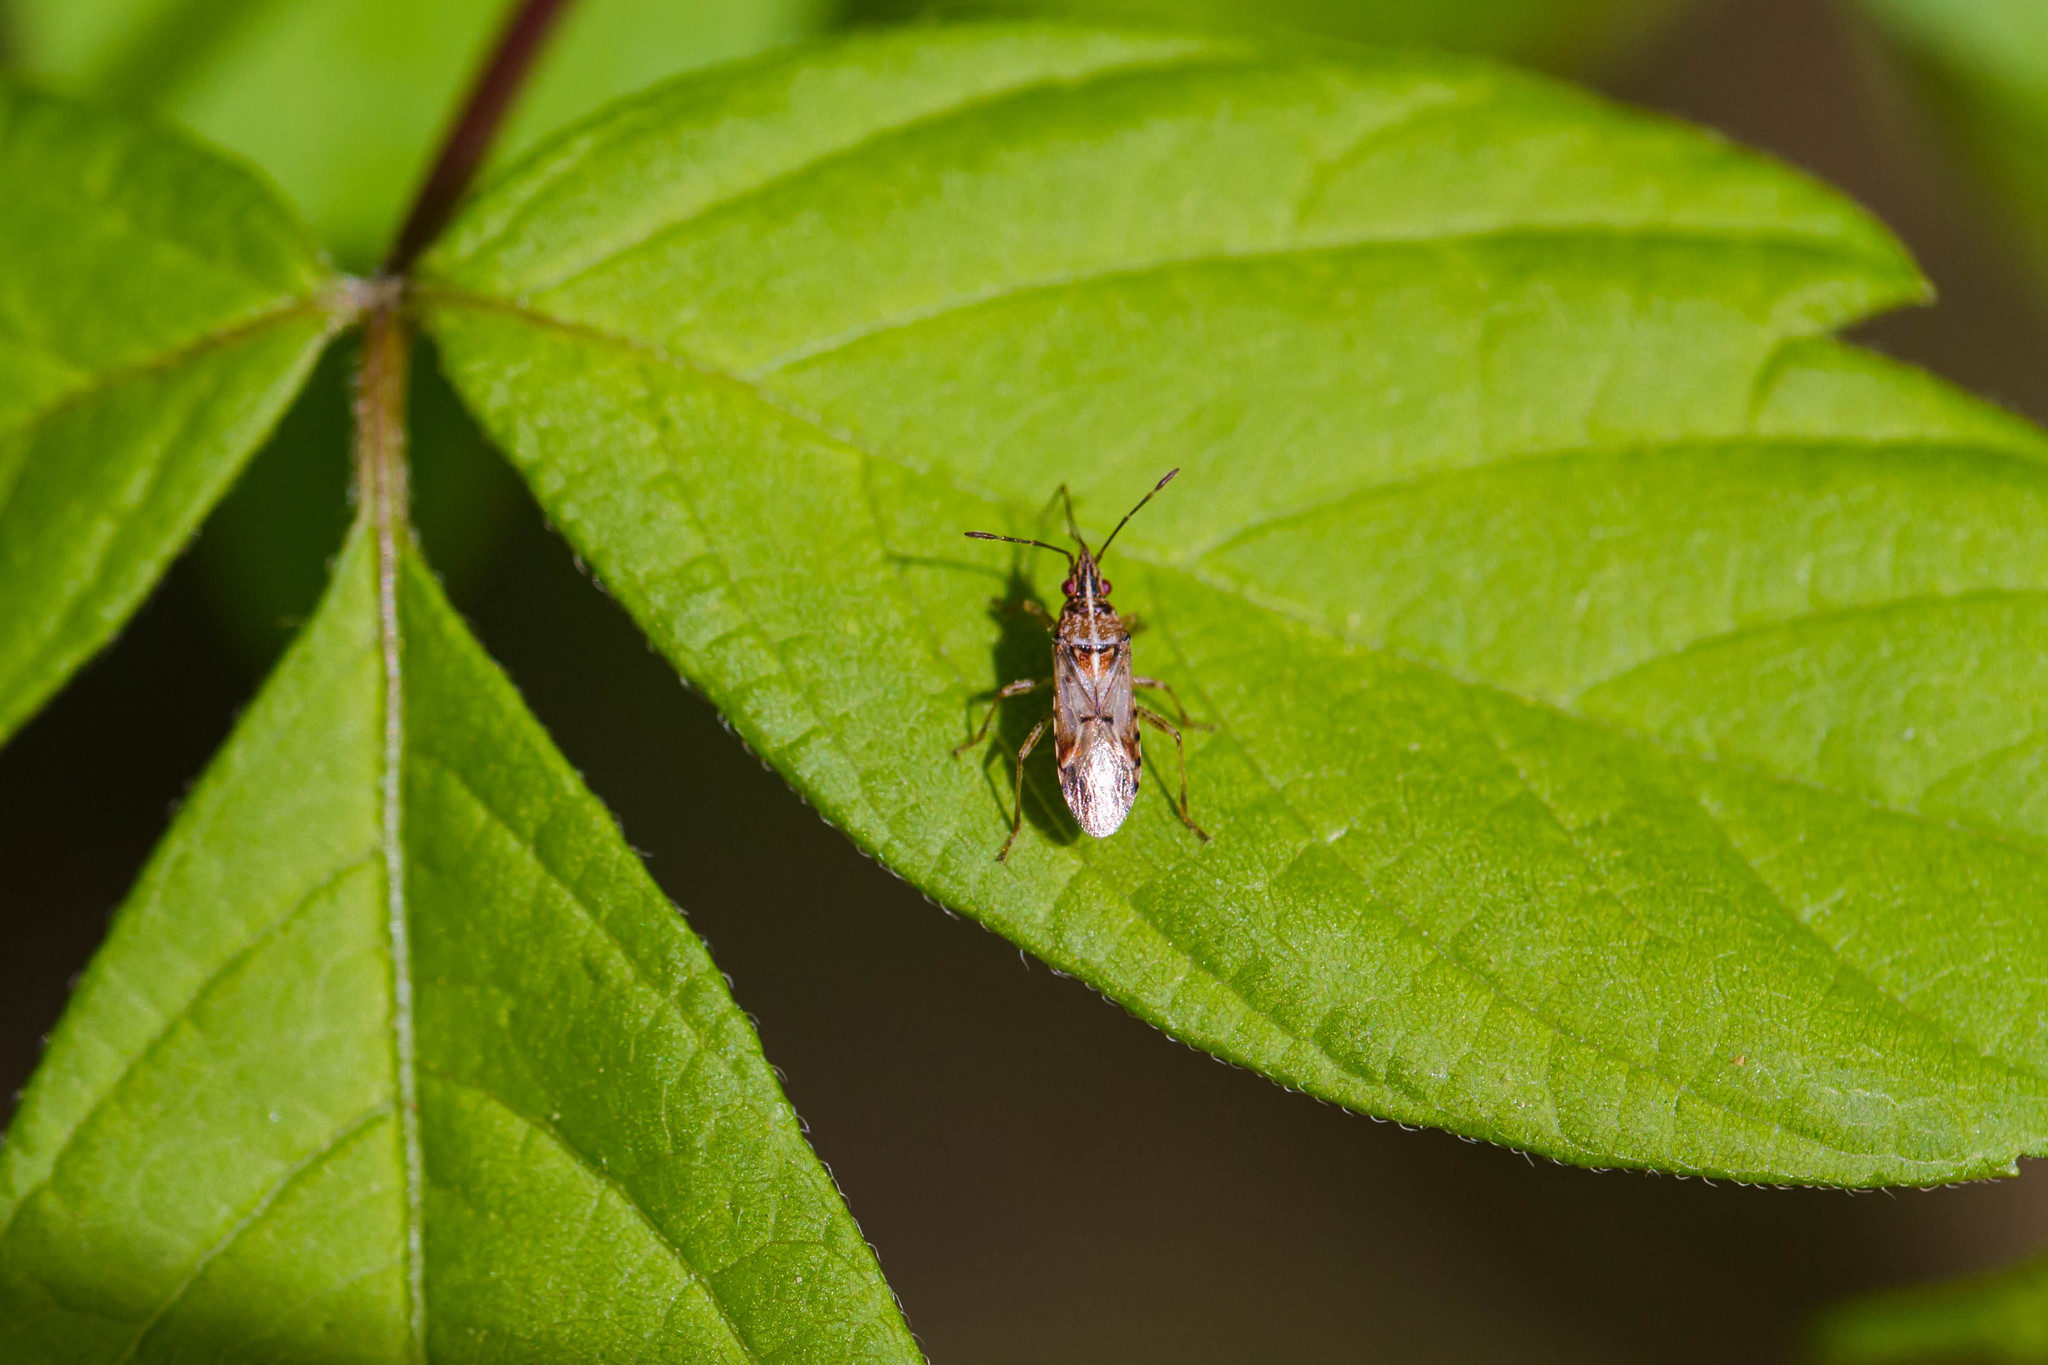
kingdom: Animalia
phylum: Arthropoda
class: Insecta
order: Hemiptera
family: Lygaeidae
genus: Belonochilus
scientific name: Belonochilus numenius
